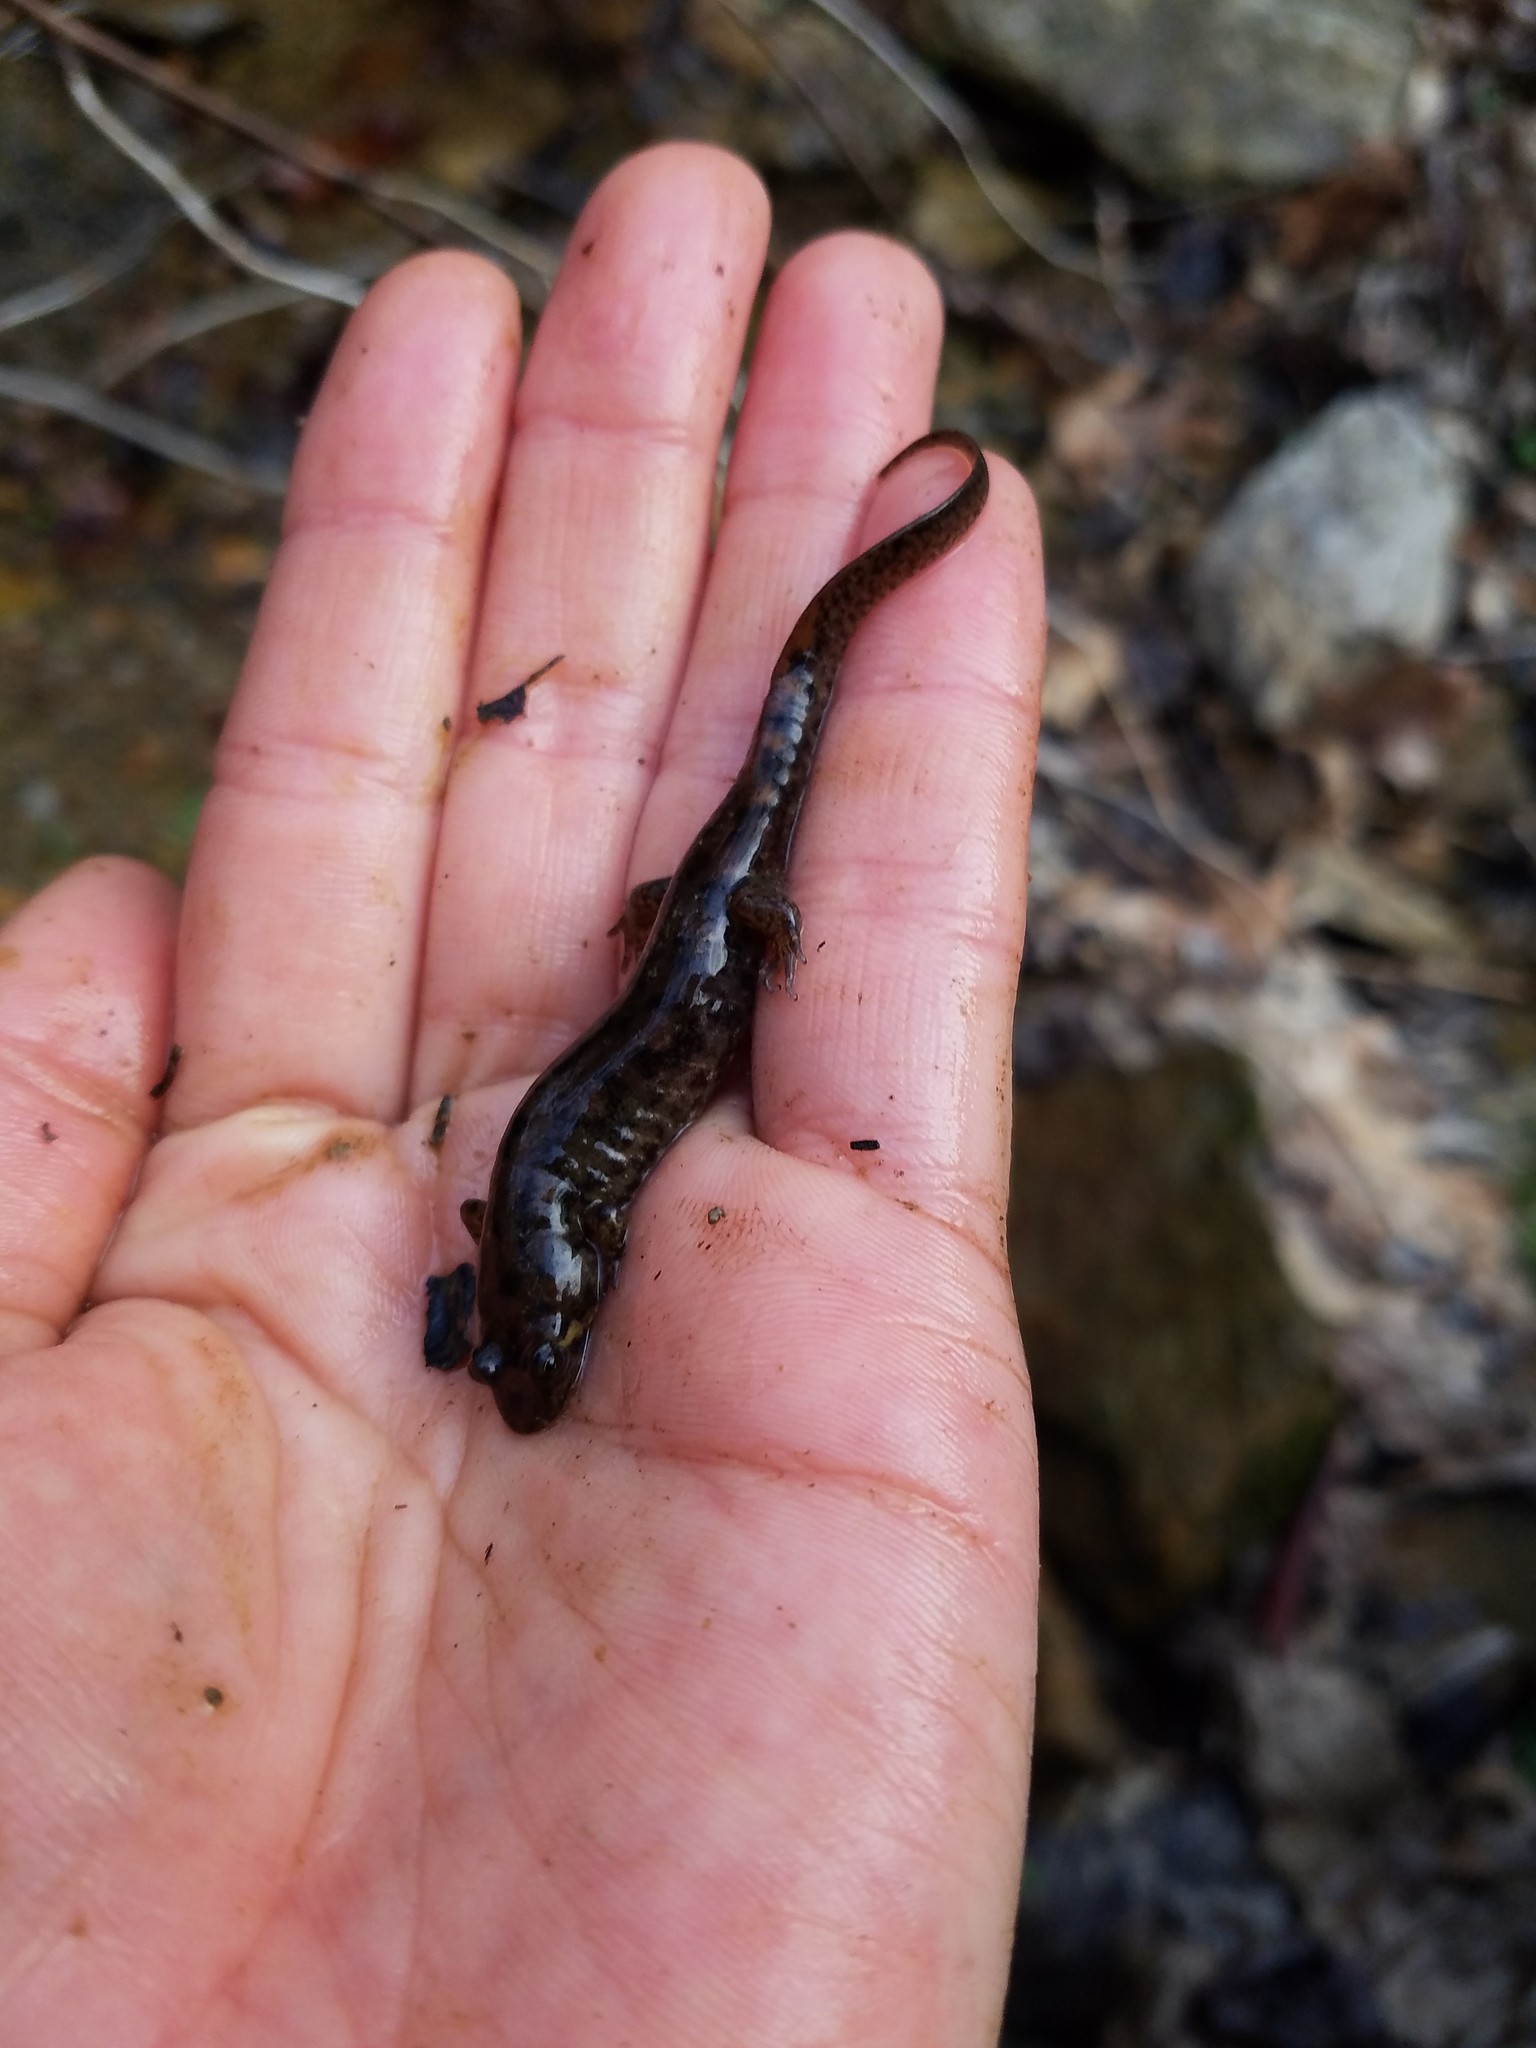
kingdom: Animalia
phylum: Chordata
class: Amphibia
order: Caudata
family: Plethodontidae
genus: Desmognathus
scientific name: Desmognathus monticola
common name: Seal salamander
